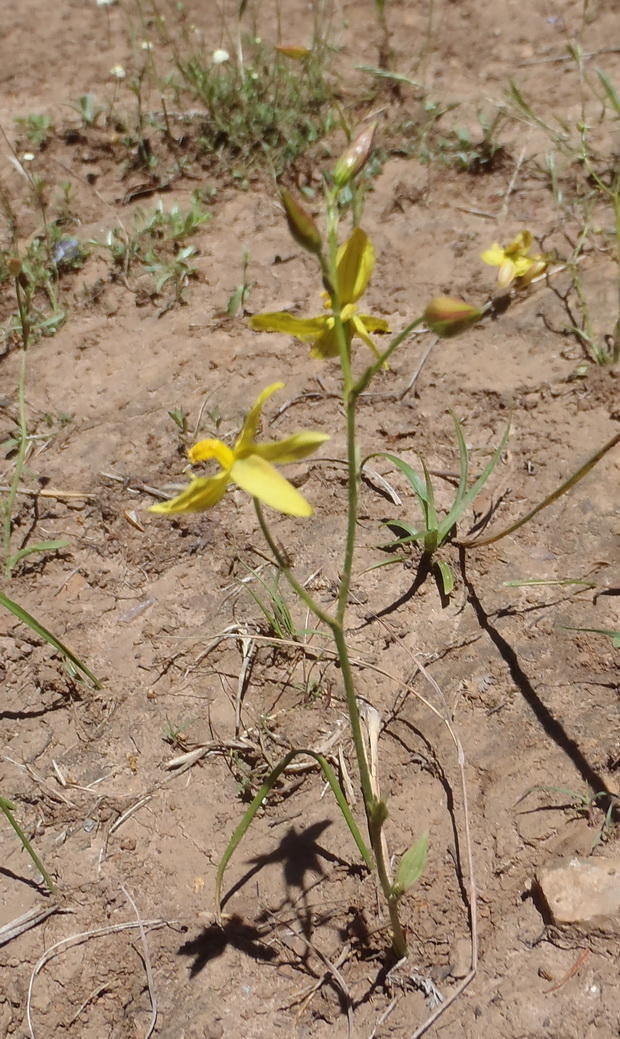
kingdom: Plantae
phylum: Tracheophyta
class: Liliopsida
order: Asparagales
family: Tecophilaeaceae
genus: Cyanella
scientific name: Cyanella lutea
